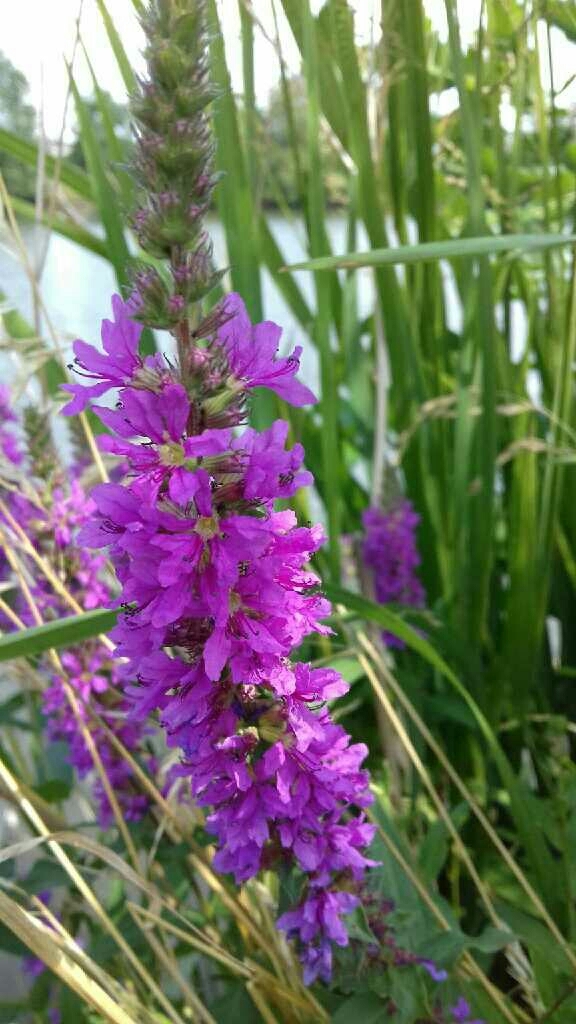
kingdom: Plantae
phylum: Tracheophyta
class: Magnoliopsida
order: Myrtales
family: Lythraceae
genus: Lythrum
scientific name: Lythrum salicaria
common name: Purple loosestrife
